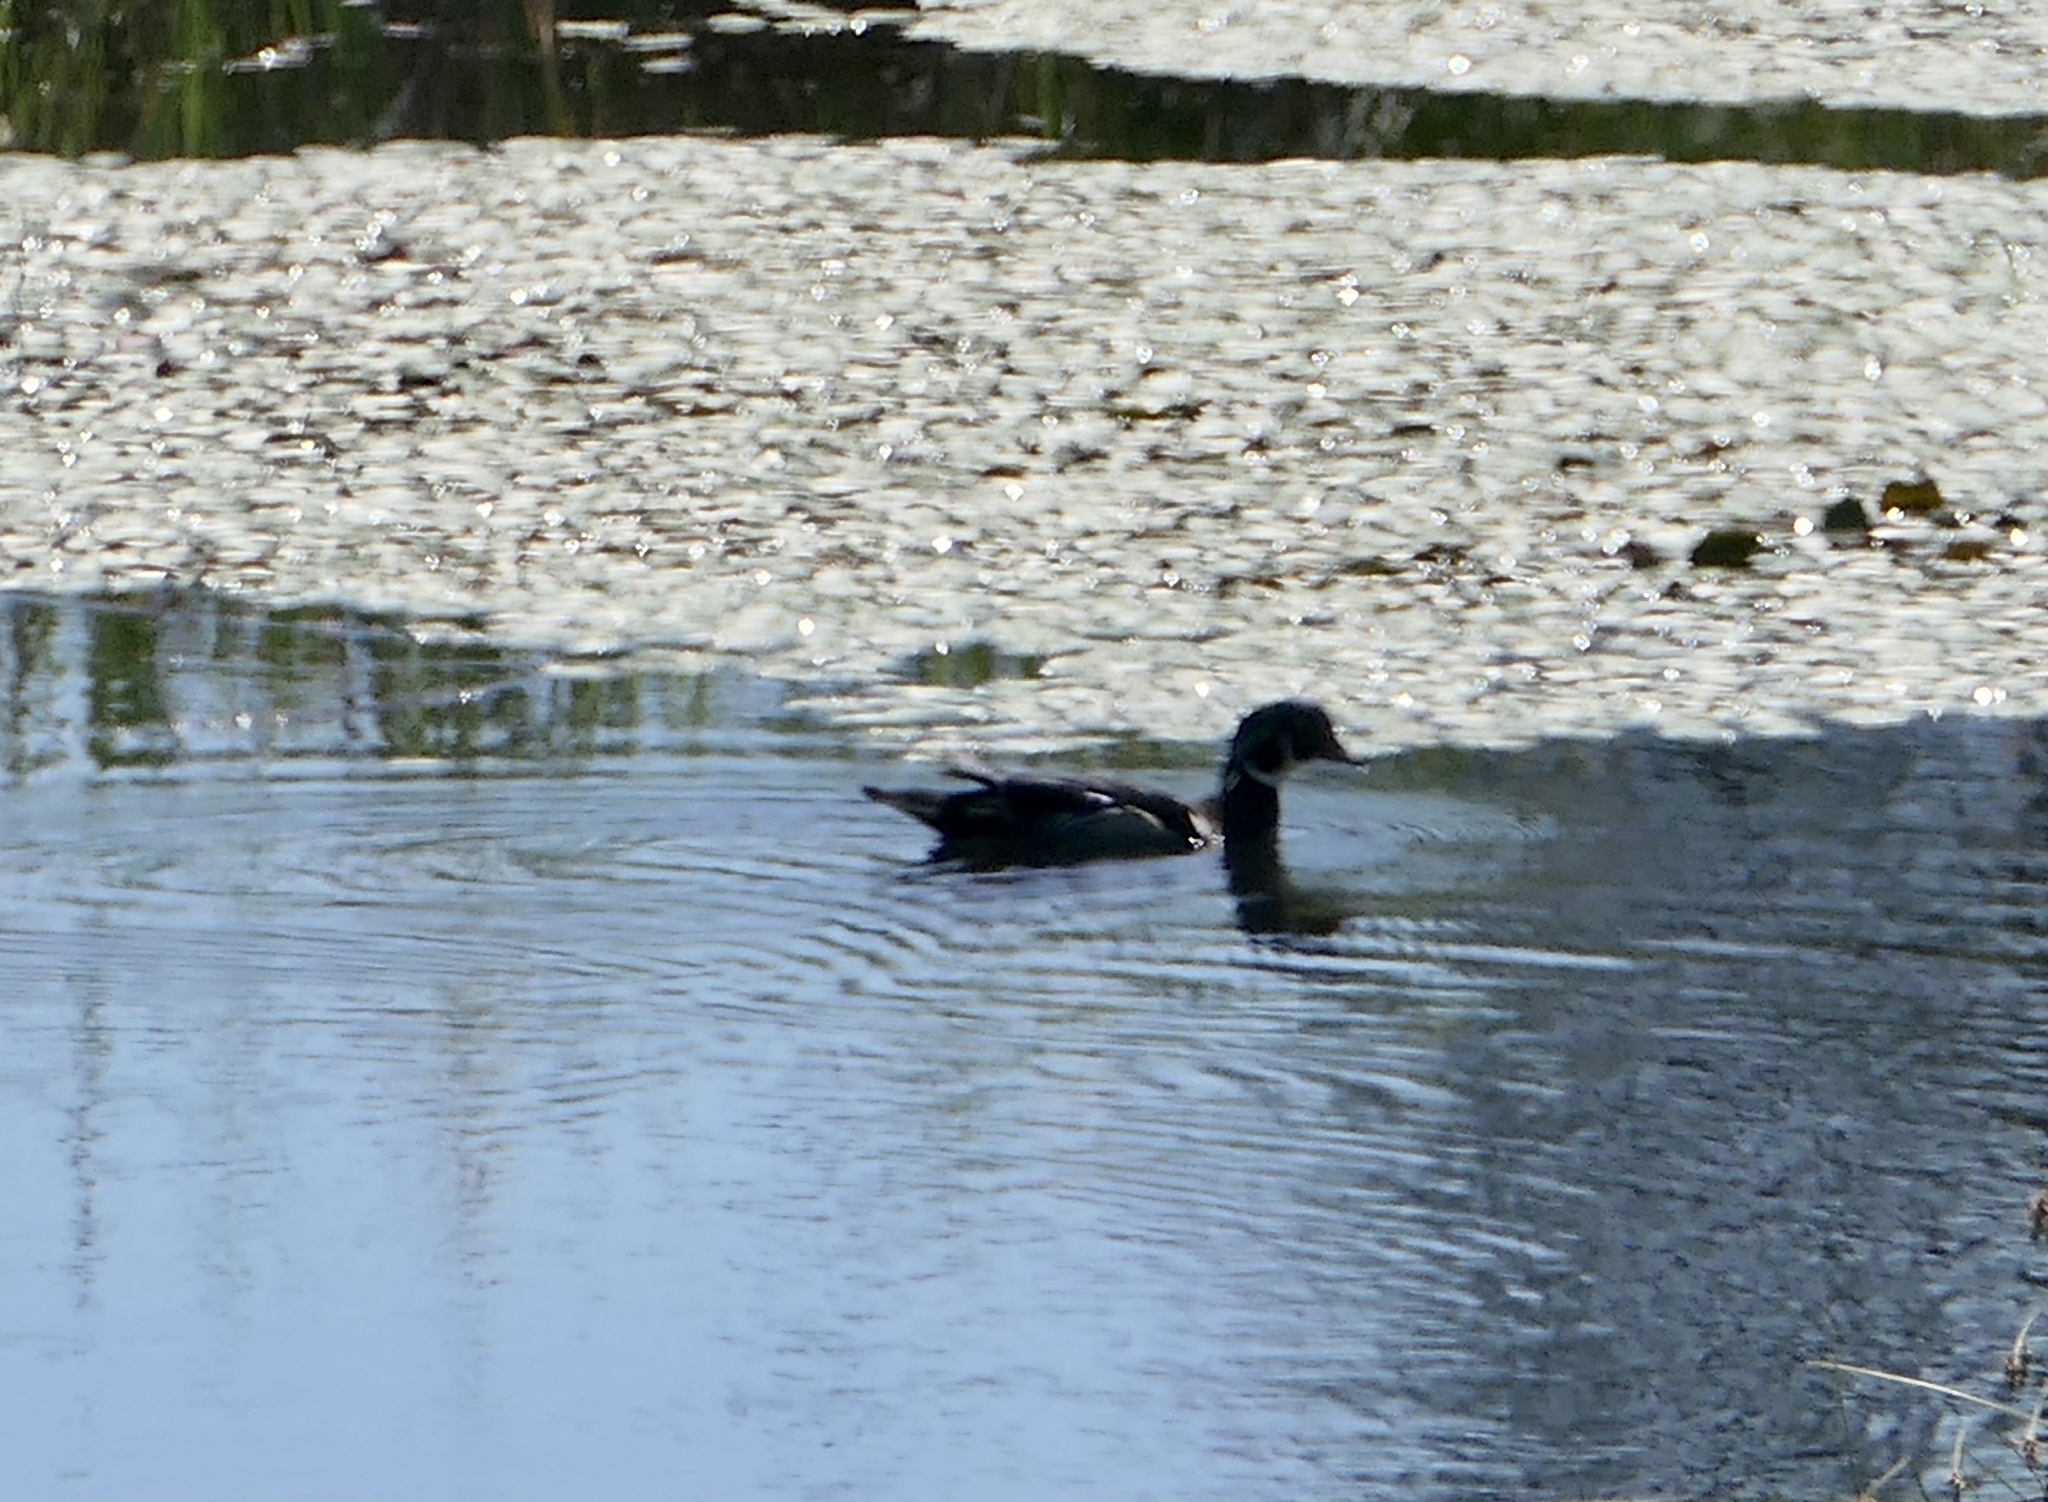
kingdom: Animalia
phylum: Chordata
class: Aves
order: Anseriformes
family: Anatidae
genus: Aix
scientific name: Aix sponsa
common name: Wood duck
